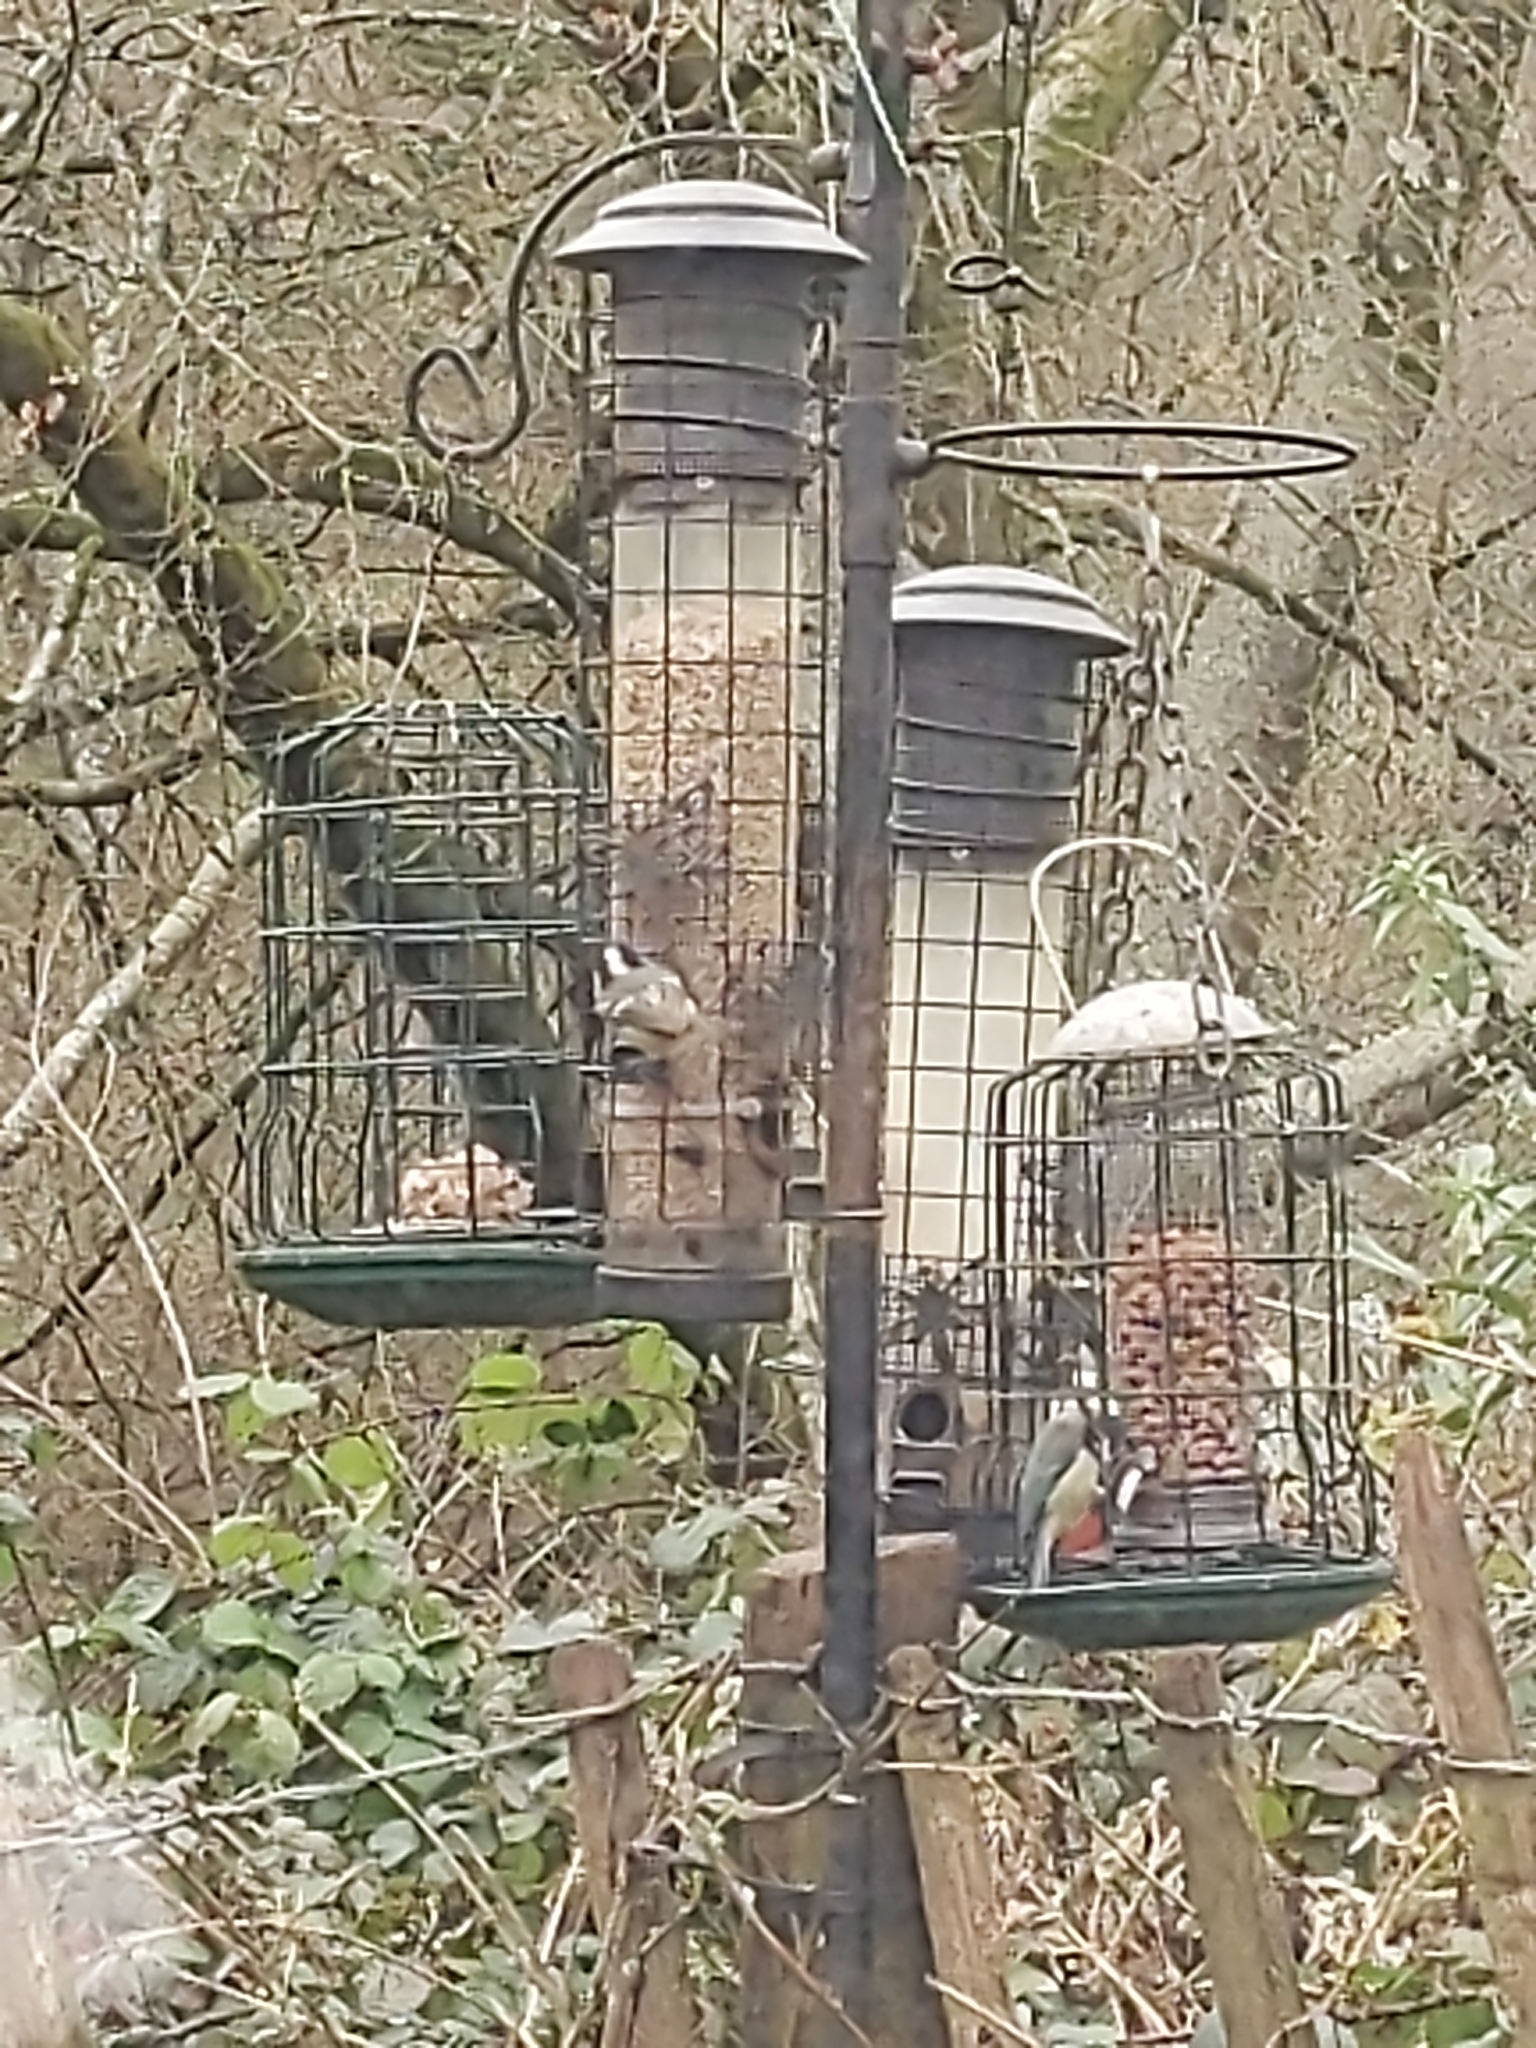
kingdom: Animalia
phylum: Chordata
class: Aves
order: Passeriformes
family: Paridae
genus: Periparus
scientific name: Periparus ater
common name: Coal tit
